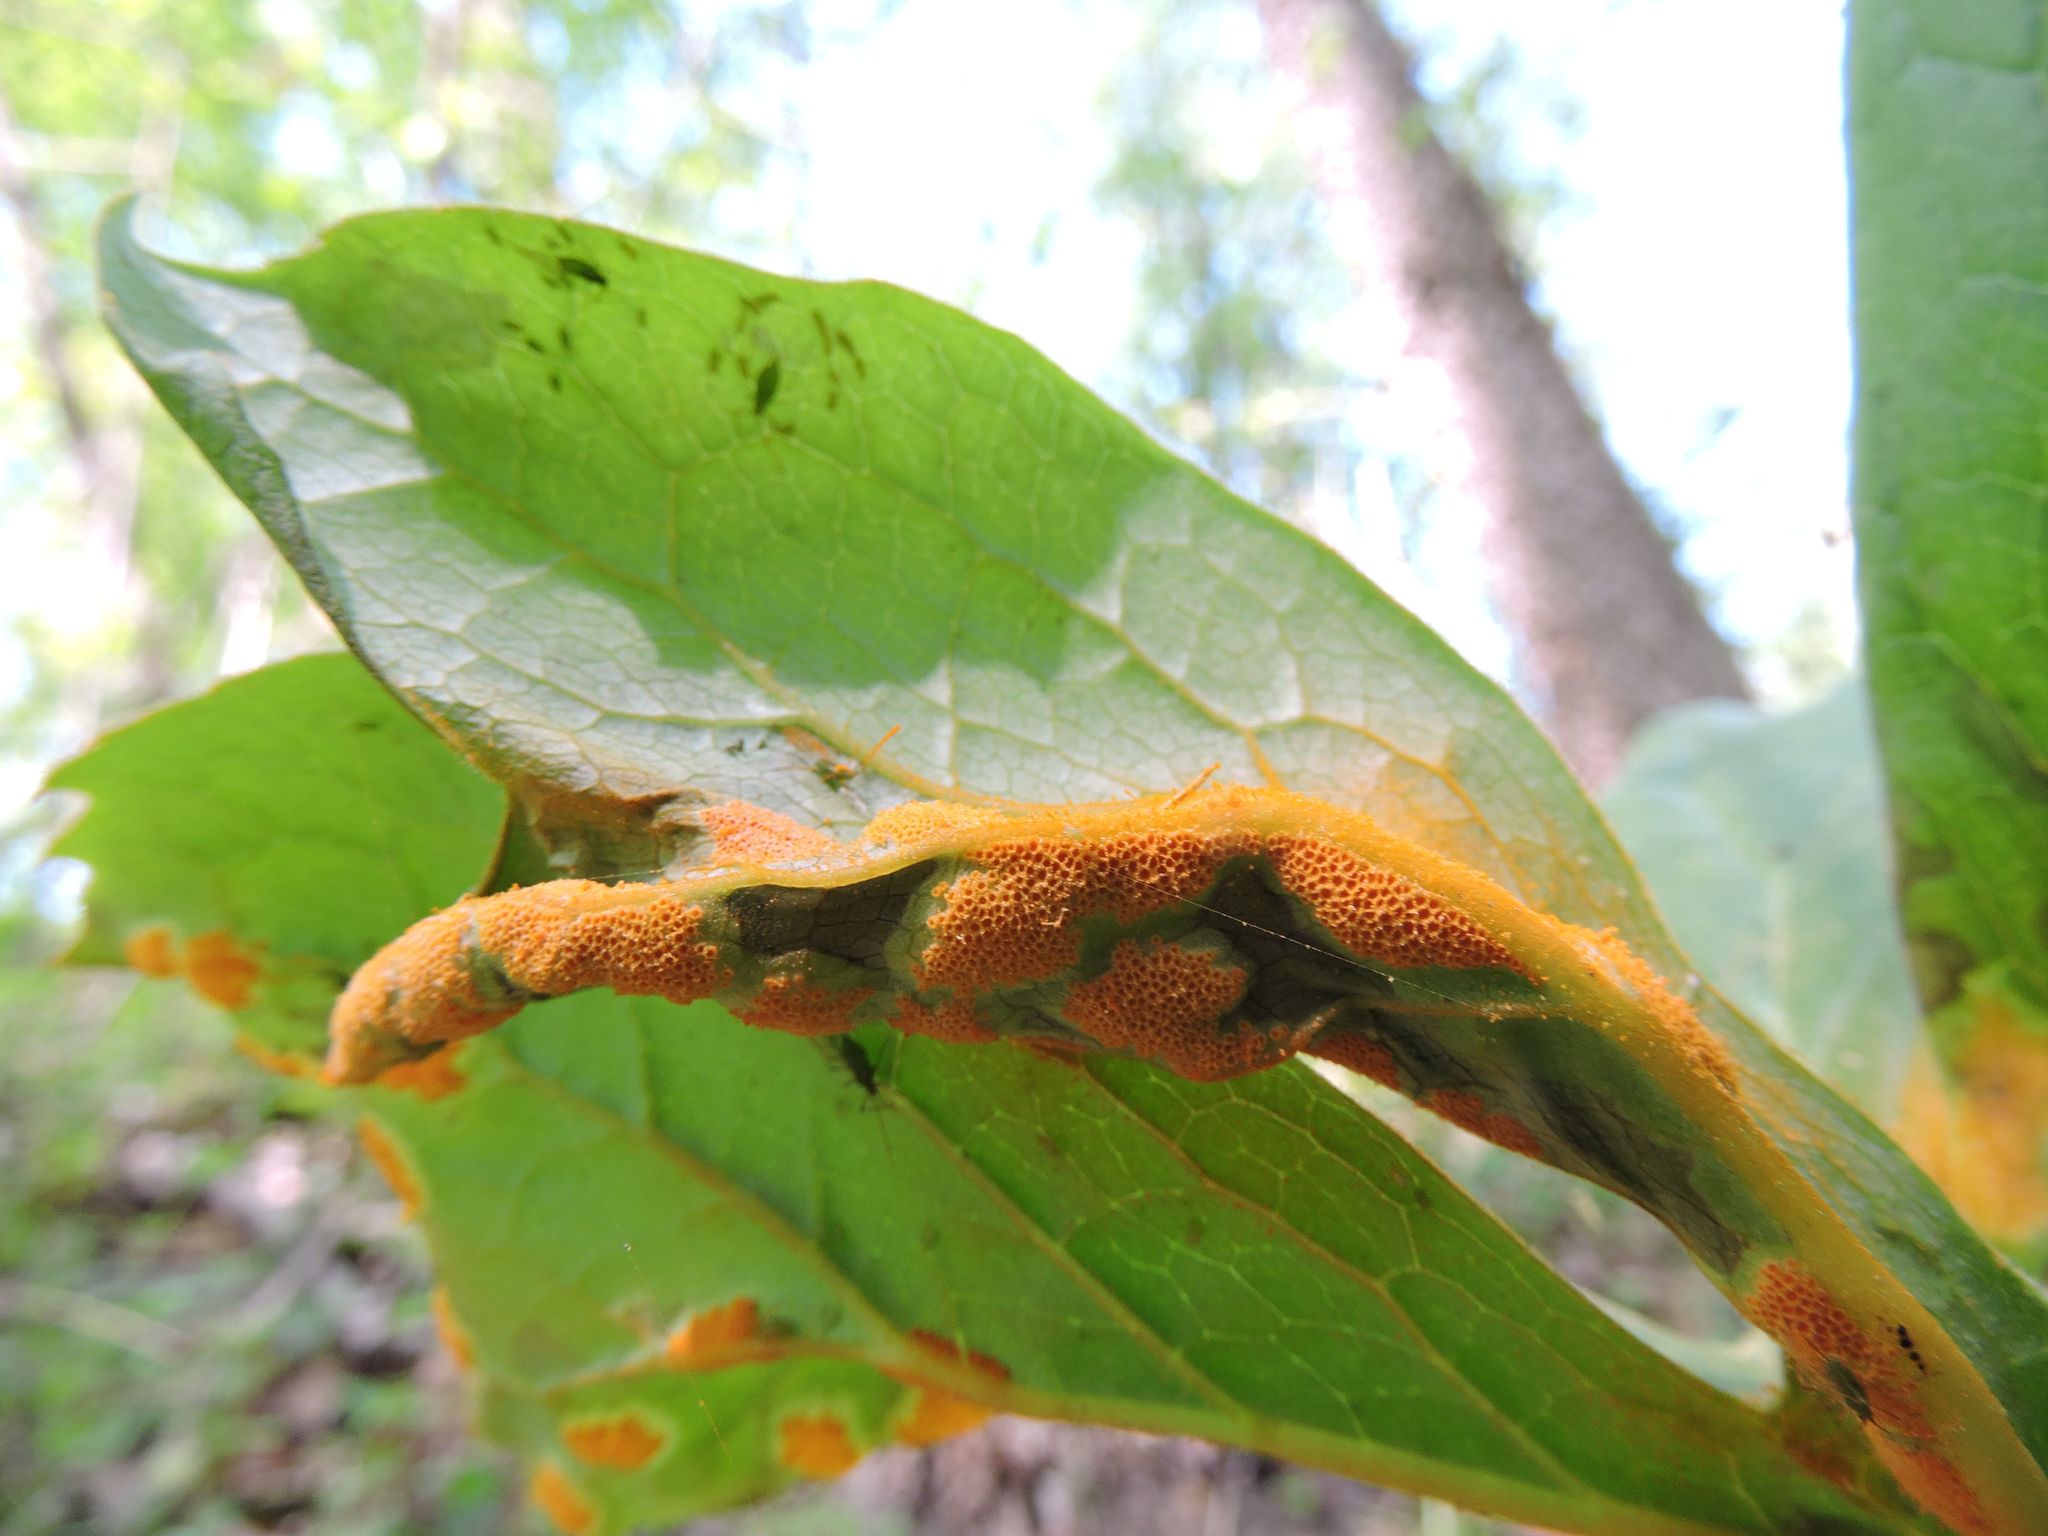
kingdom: Fungi
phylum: Basidiomycota
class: Pucciniomycetes
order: Pucciniales
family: Pucciniaceae
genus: Puccinia
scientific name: Puccinia podophylli
